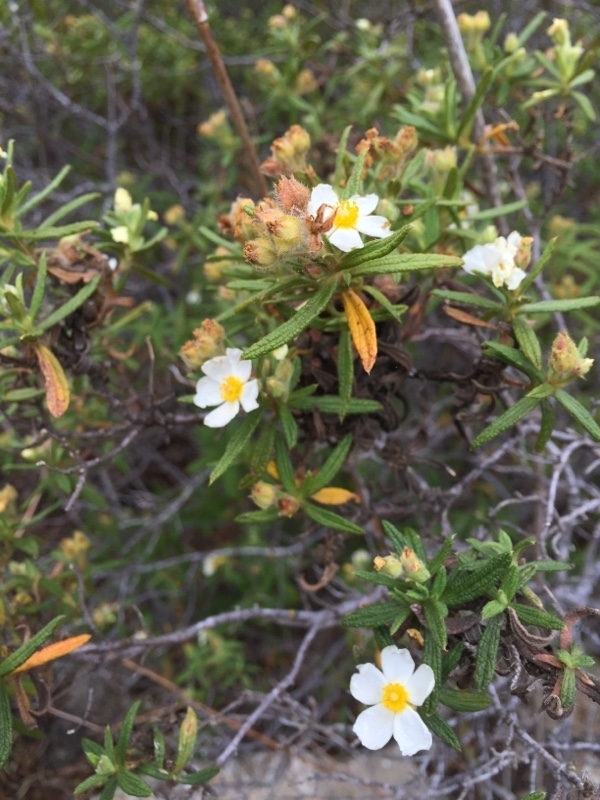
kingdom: Plantae
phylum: Tracheophyta
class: Magnoliopsida
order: Malvales
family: Cistaceae
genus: Cistus
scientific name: Cistus monspeliensis
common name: Montpelier cistus
